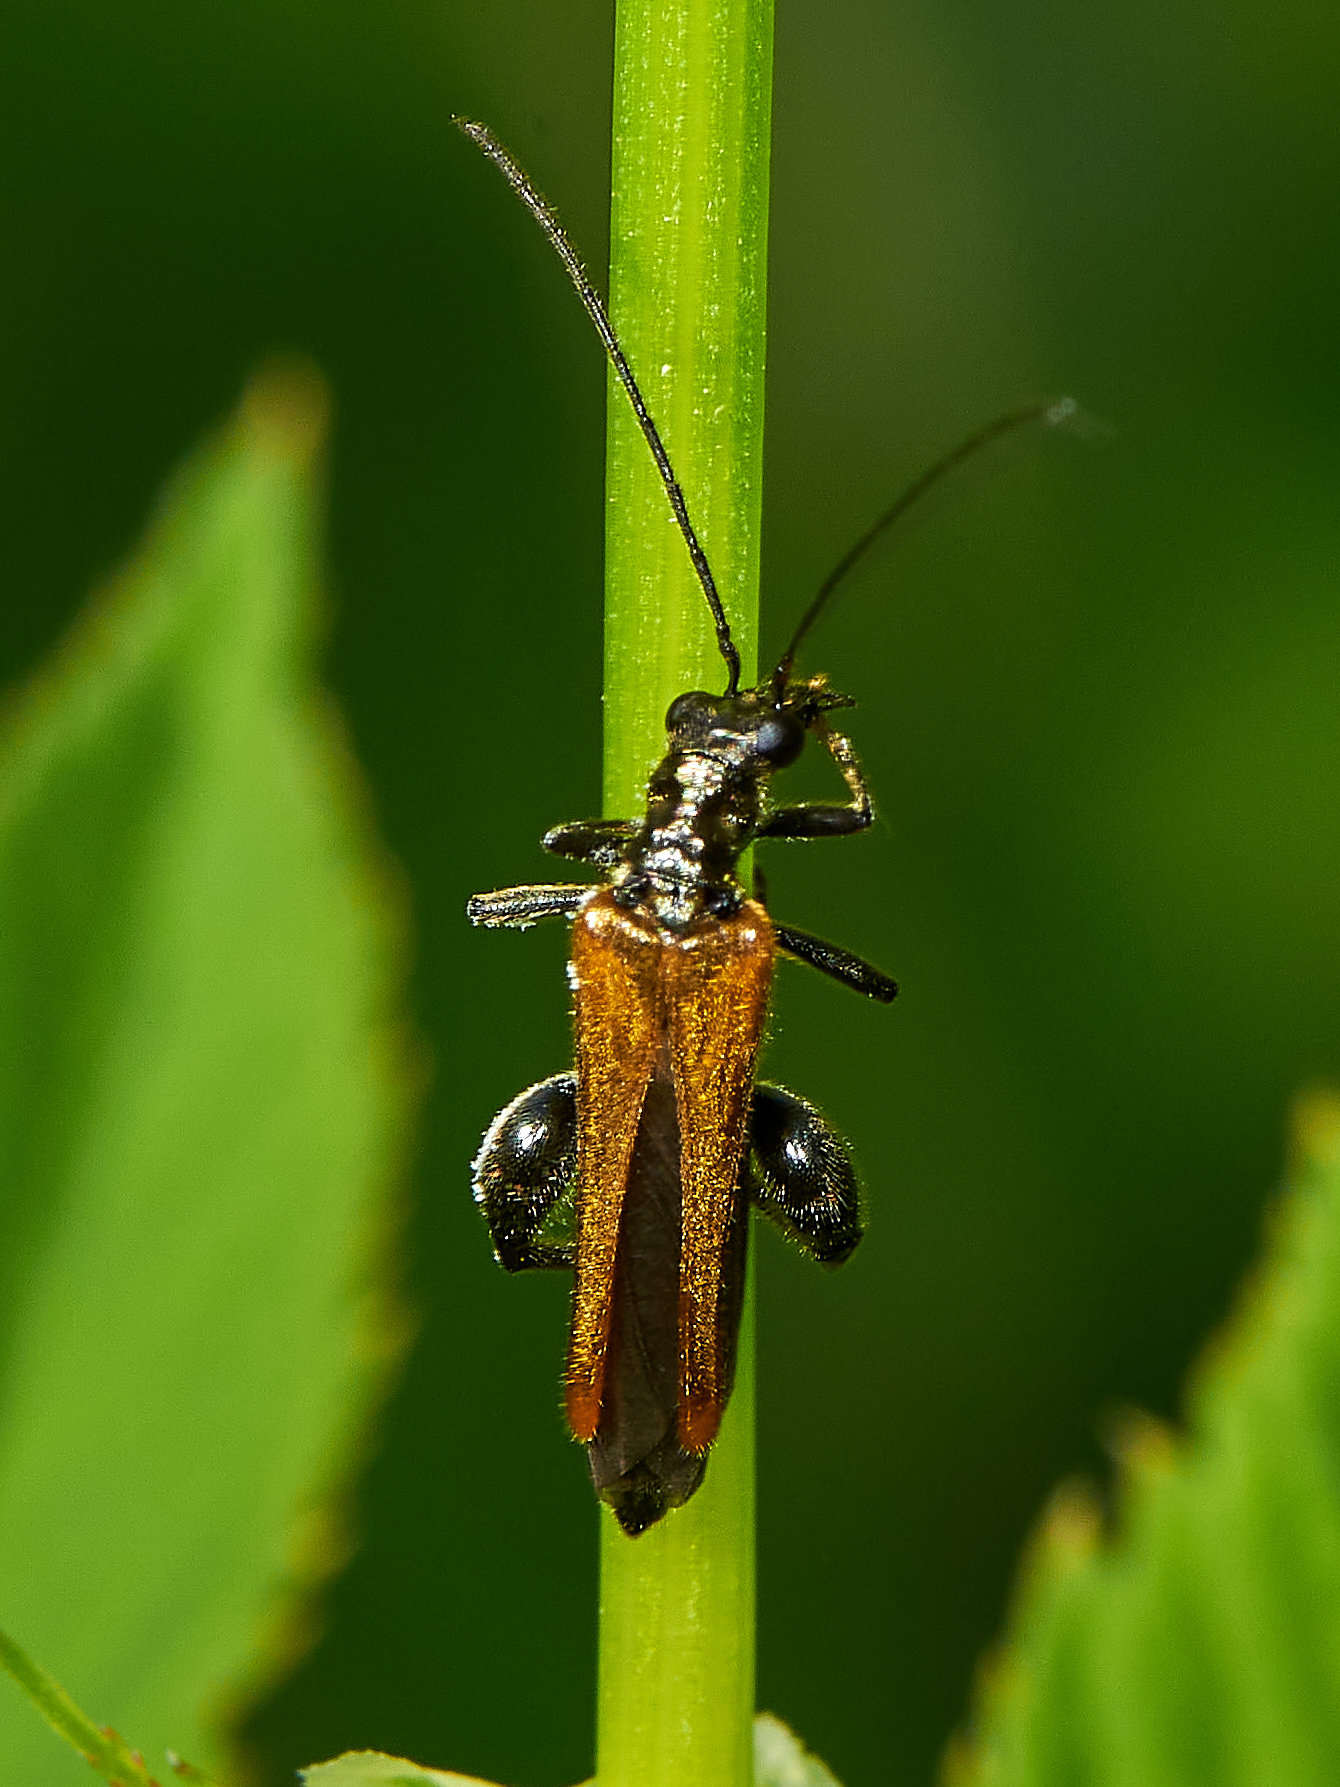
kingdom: Animalia
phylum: Arthropoda
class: Insecta
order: Coleoptera
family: Oedemeridae
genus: Oedemera
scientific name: Oedemera femorata
